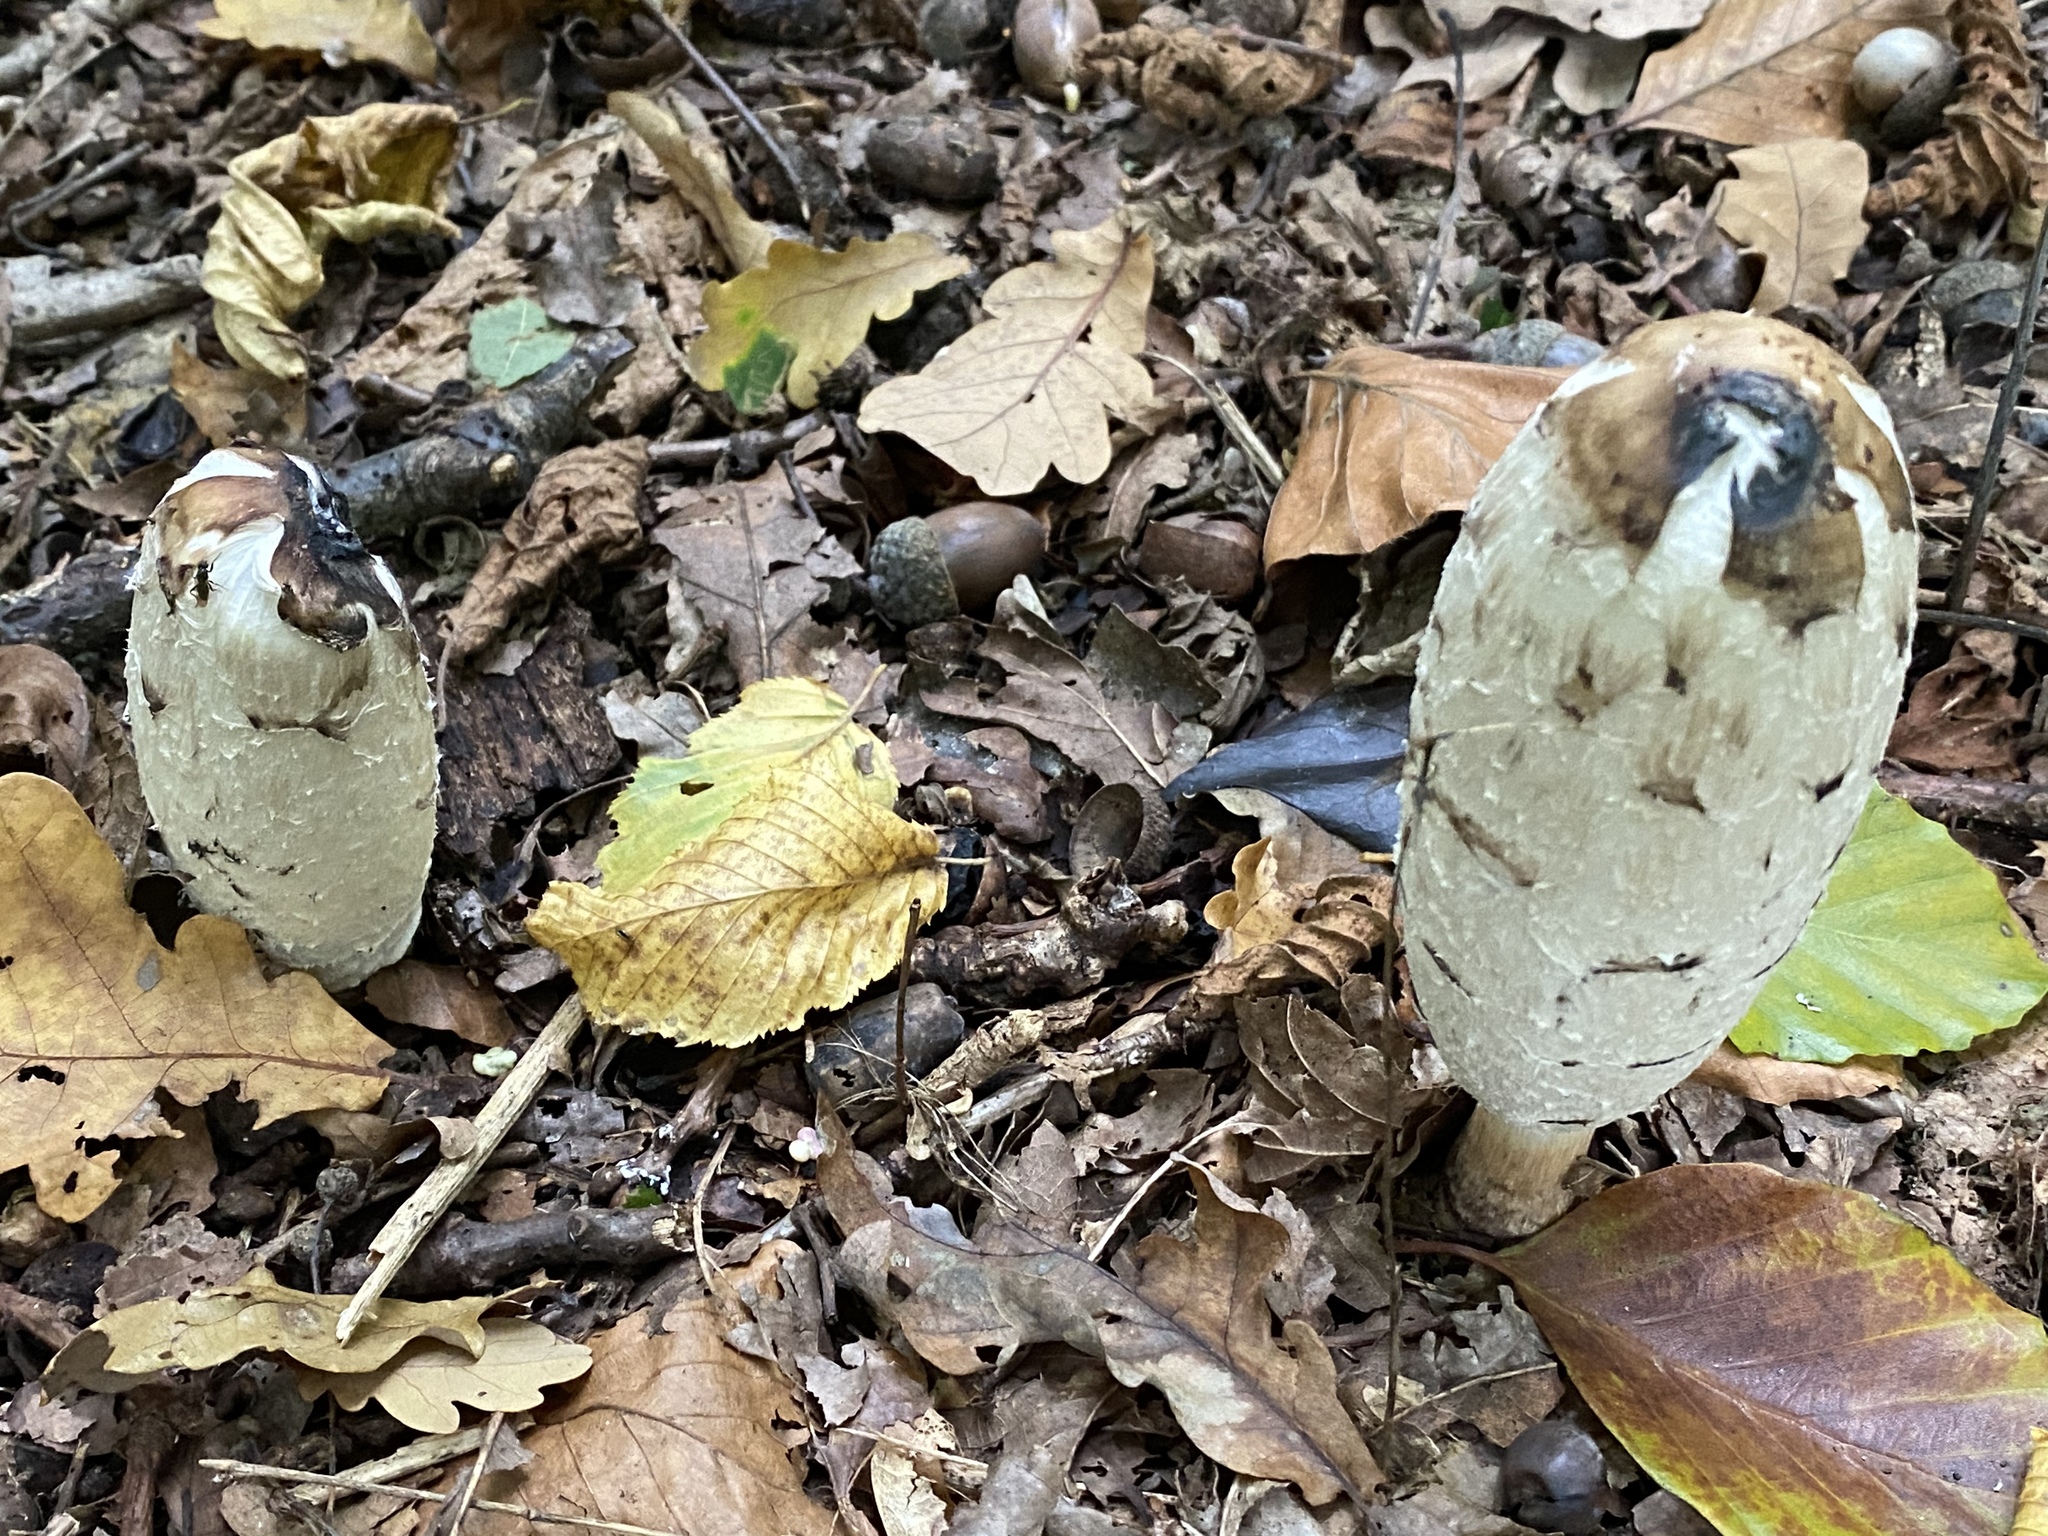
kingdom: Fungi
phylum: Basidiomycota
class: Agaricomycetes
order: Agaricales
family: Agaricaceae
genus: Coprinus
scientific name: Coprinus comatus
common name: Lawyer's wig
